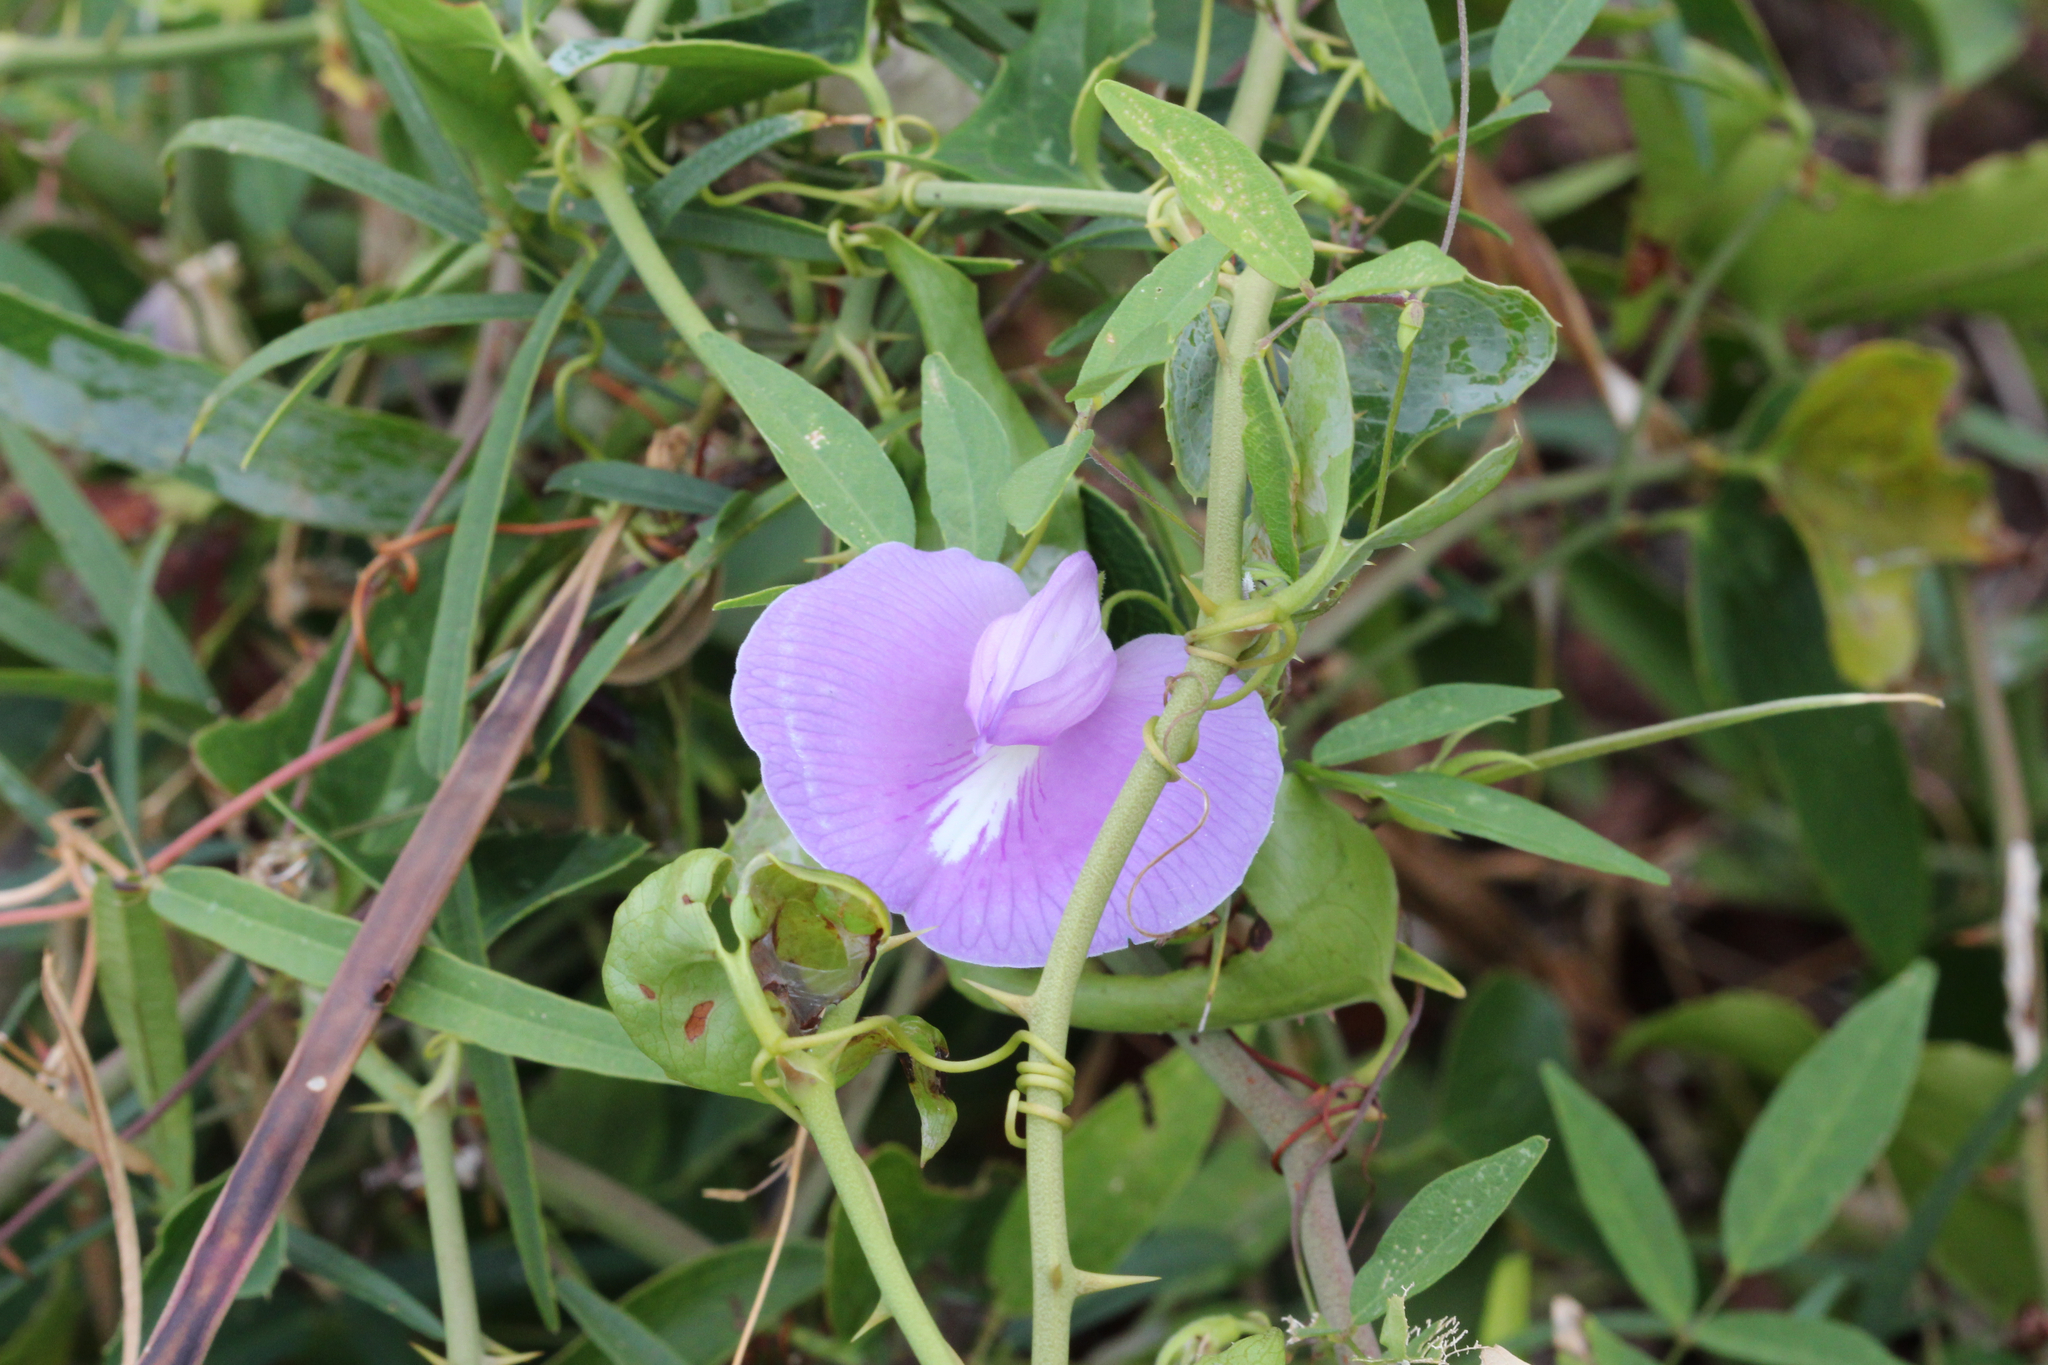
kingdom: Plantae
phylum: Tracheophyta
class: Magnoliopsida
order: Fabales
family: Fabaceae
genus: Centrosema
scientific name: Centrosema virginianum
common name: Butterfly-pea
